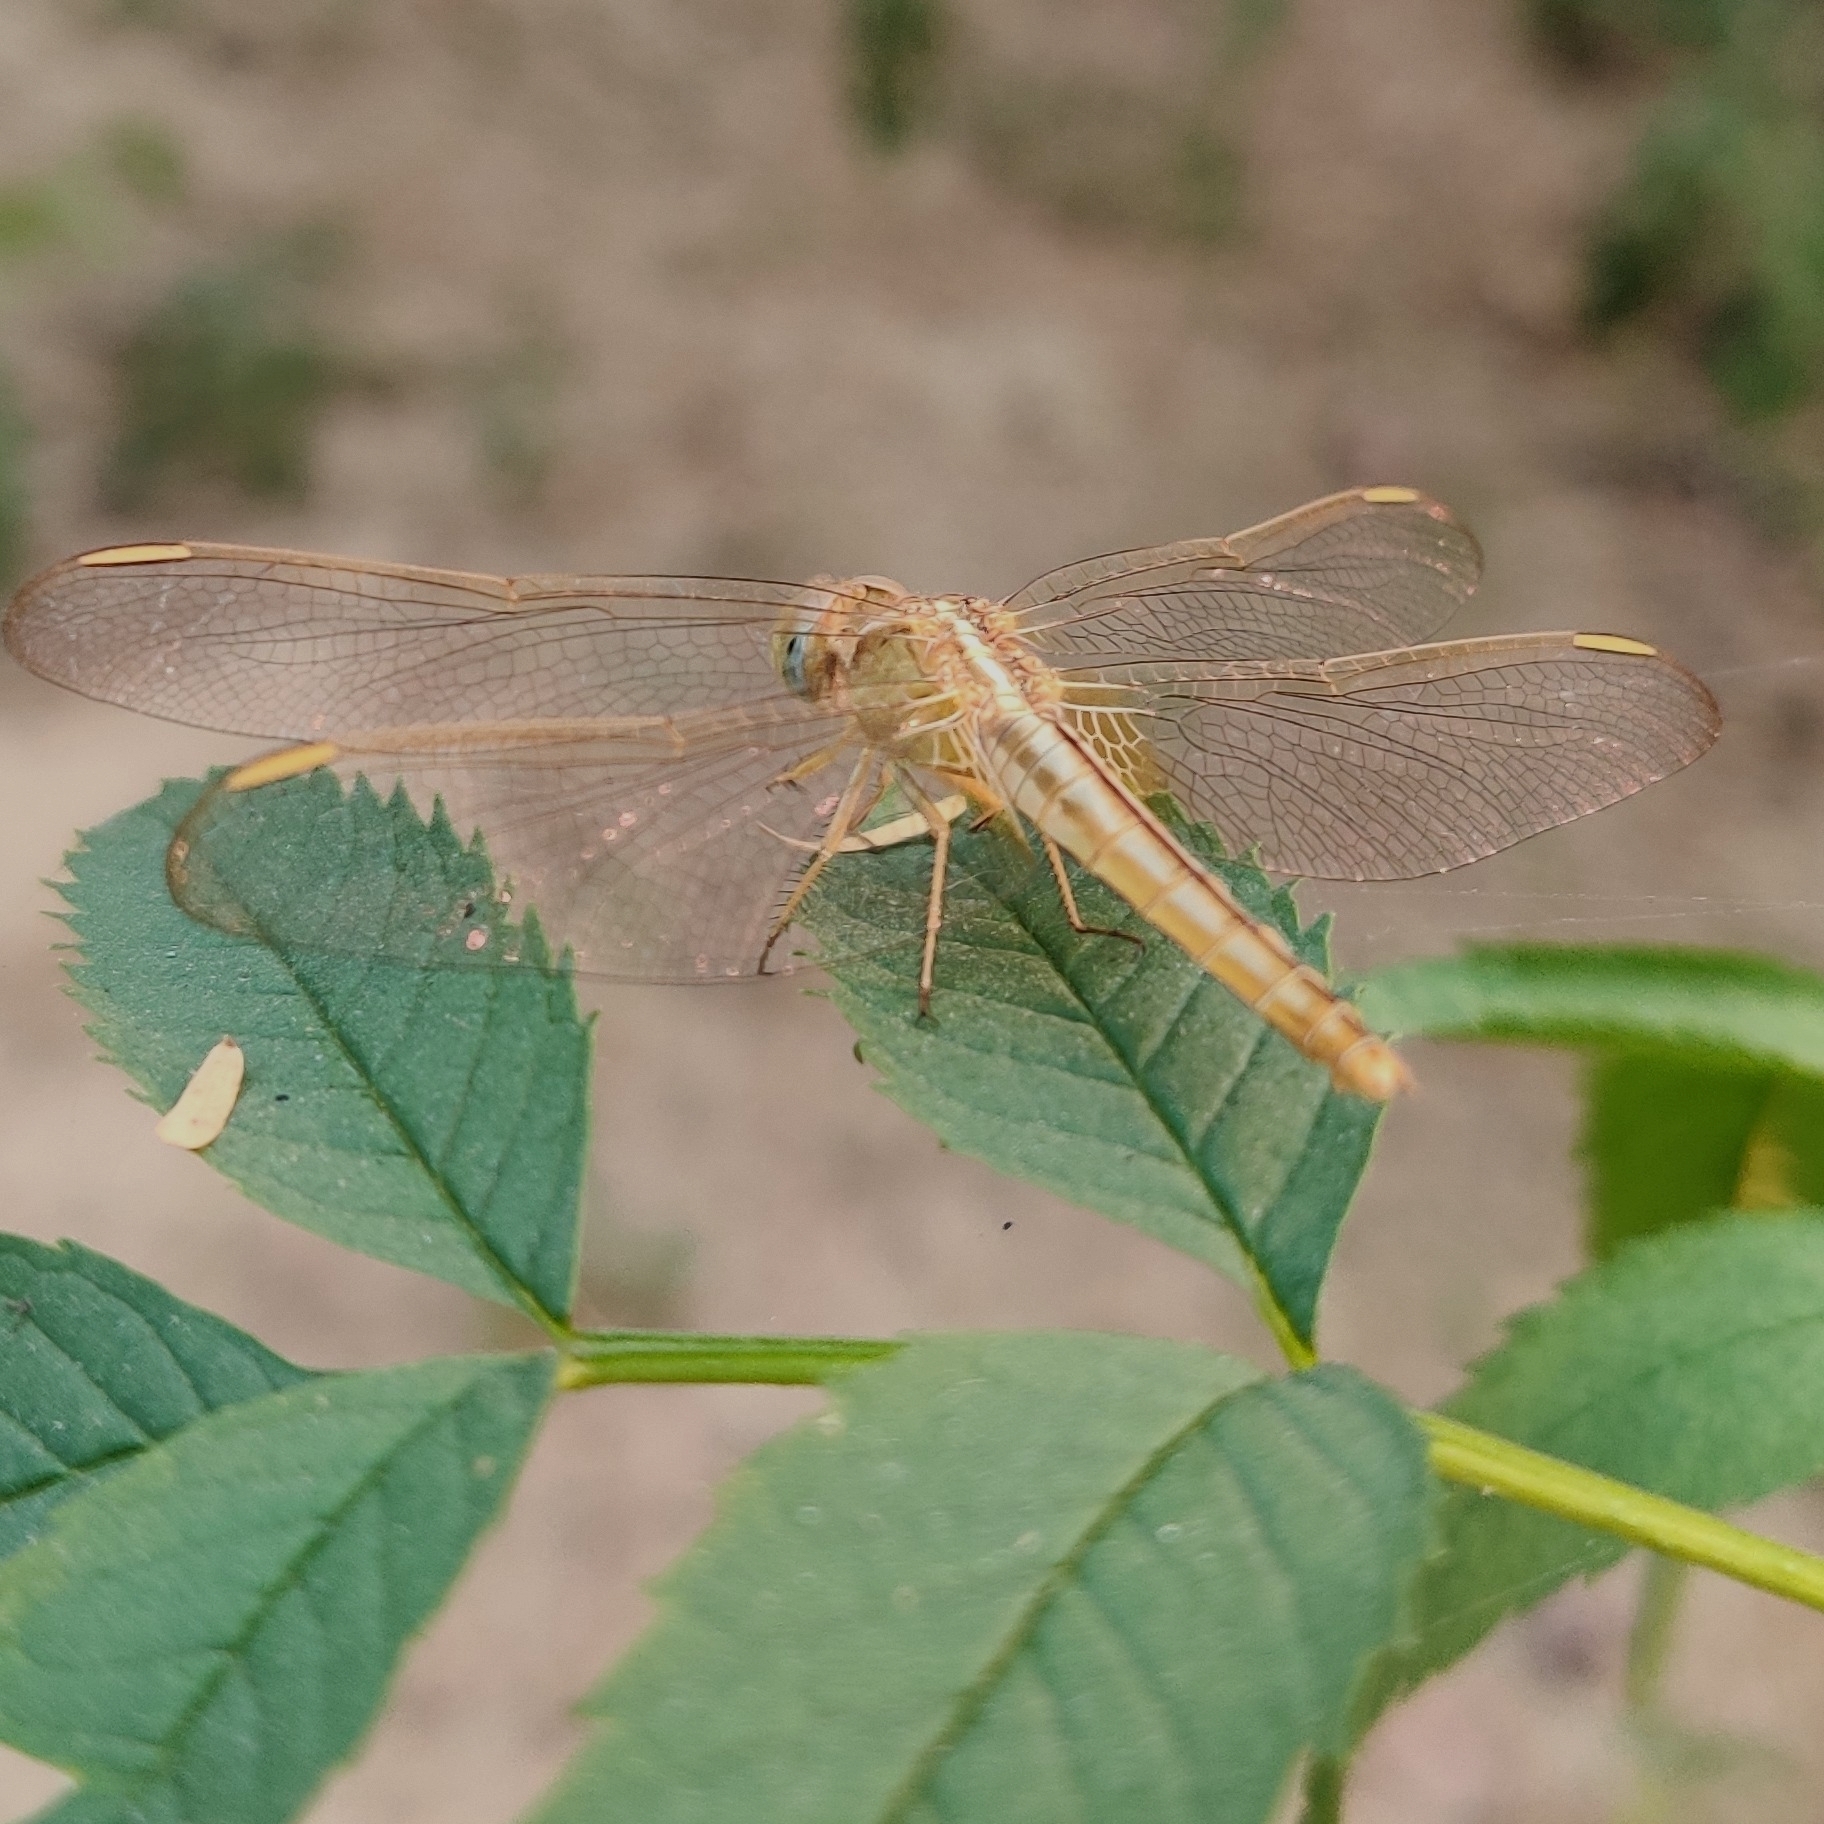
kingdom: Animalia
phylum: Arthropoda
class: Insecta
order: Odonata
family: Libellulidae
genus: Crocothemis
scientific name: Crocothemis servilia
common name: Scarlet skimmer
